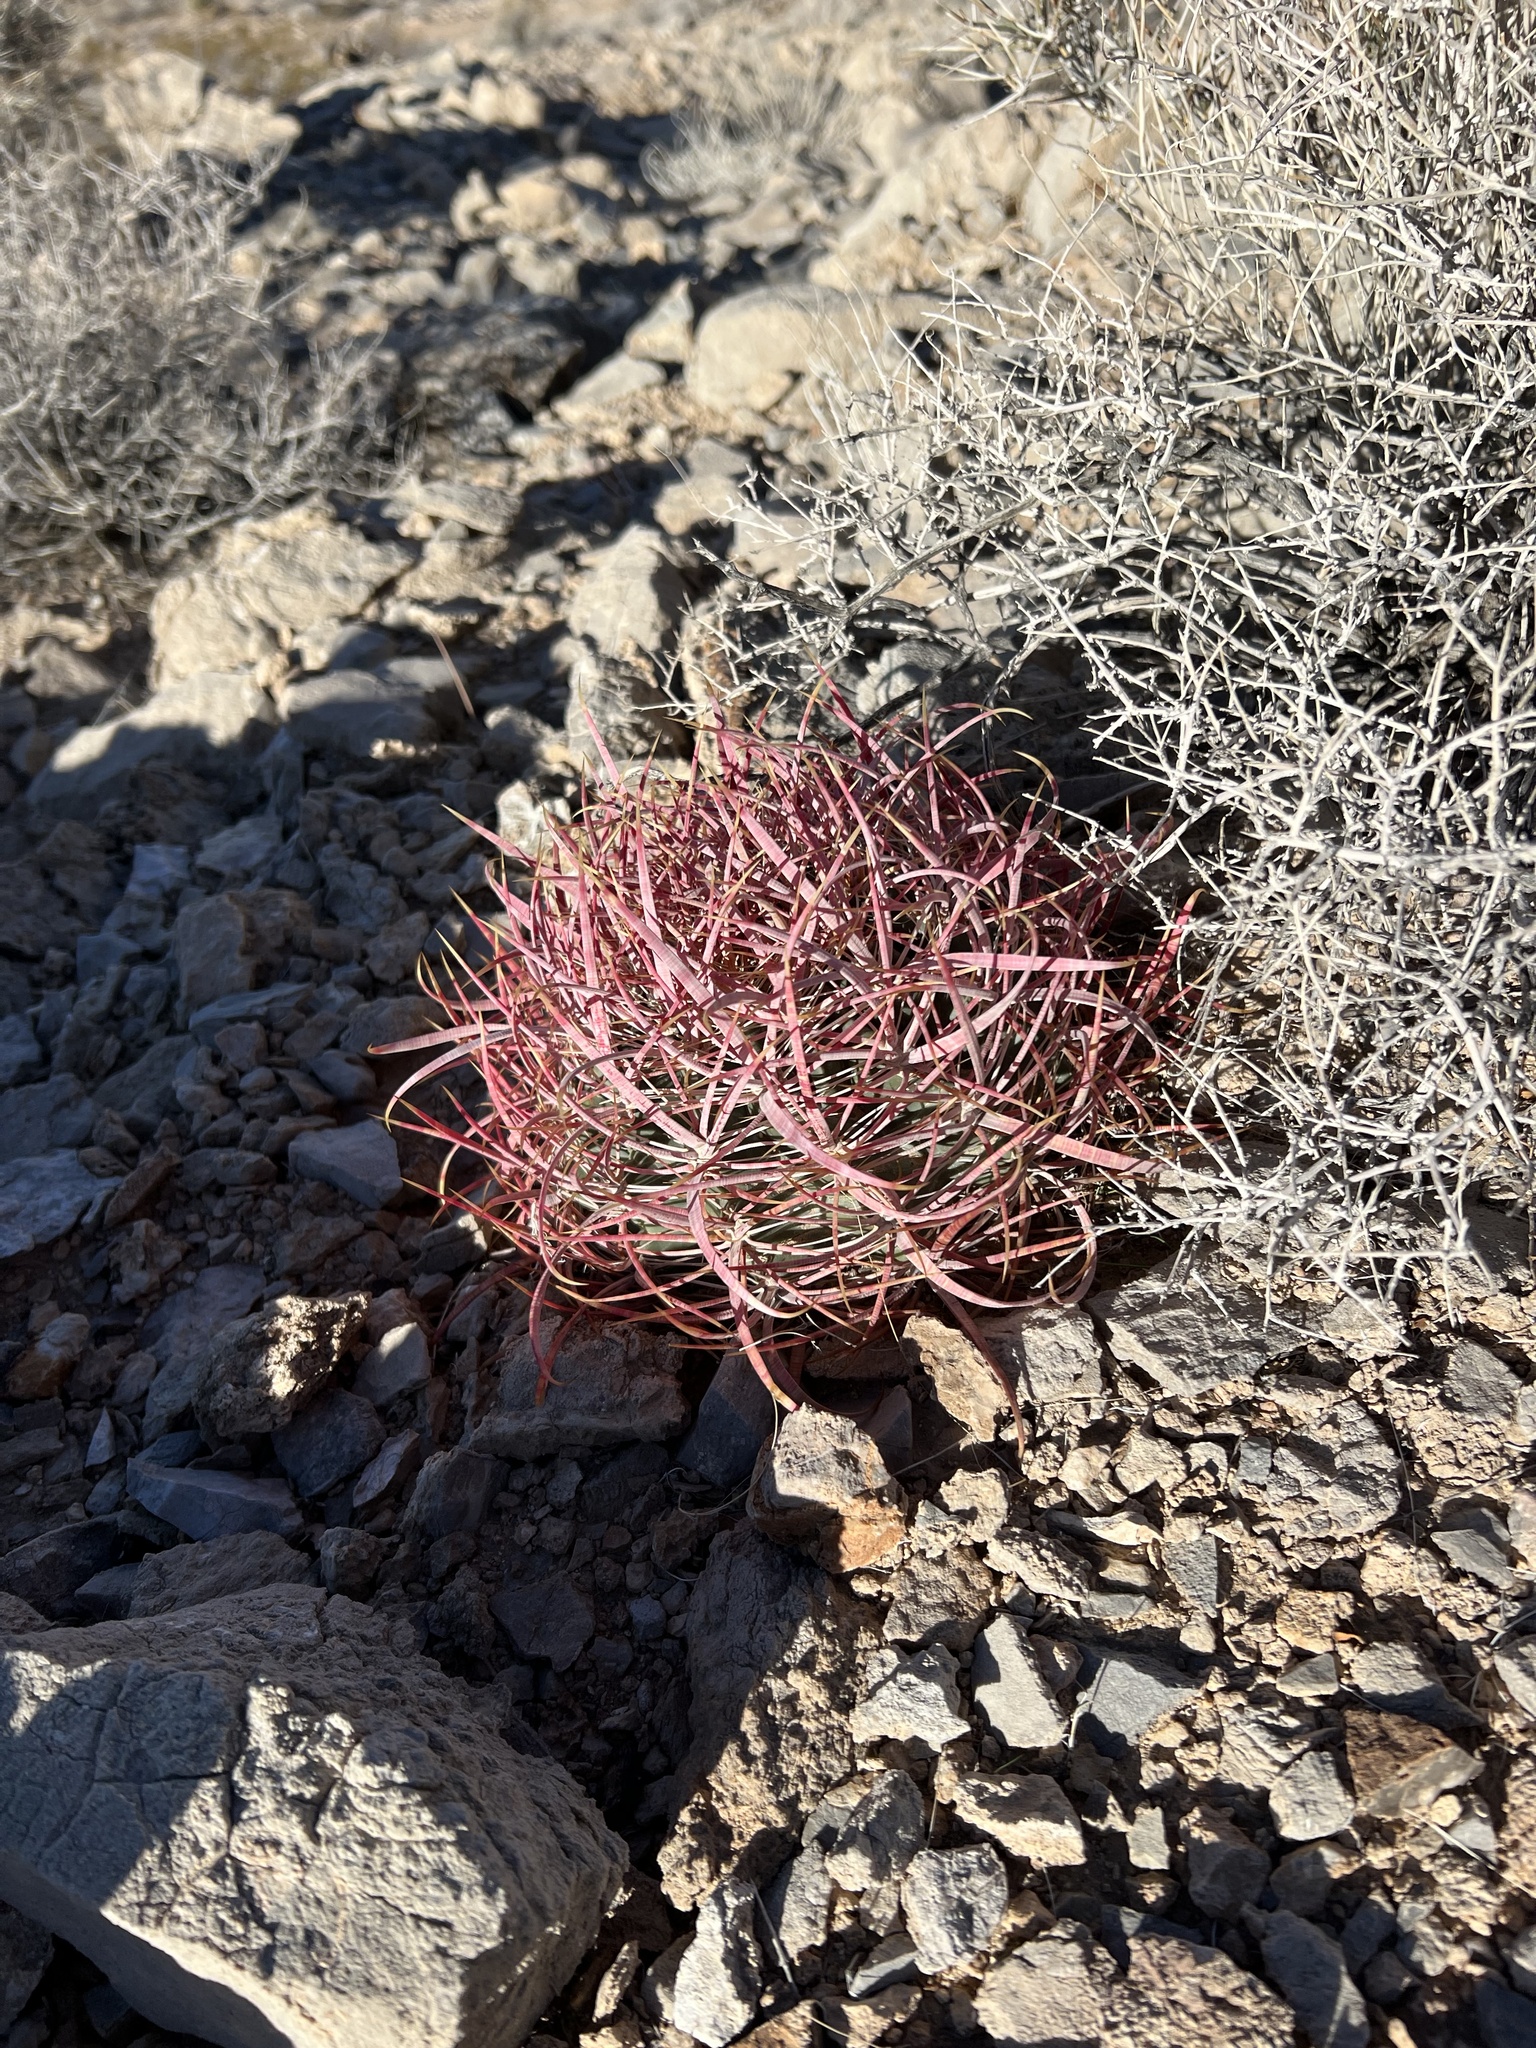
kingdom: Plantae
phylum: Tracheophyta
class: Magnoliopsida
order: Caryophyllales
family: Cactaceae
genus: Ferocactus
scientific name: Ferocactus cylindraceus
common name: California barrel cactus
